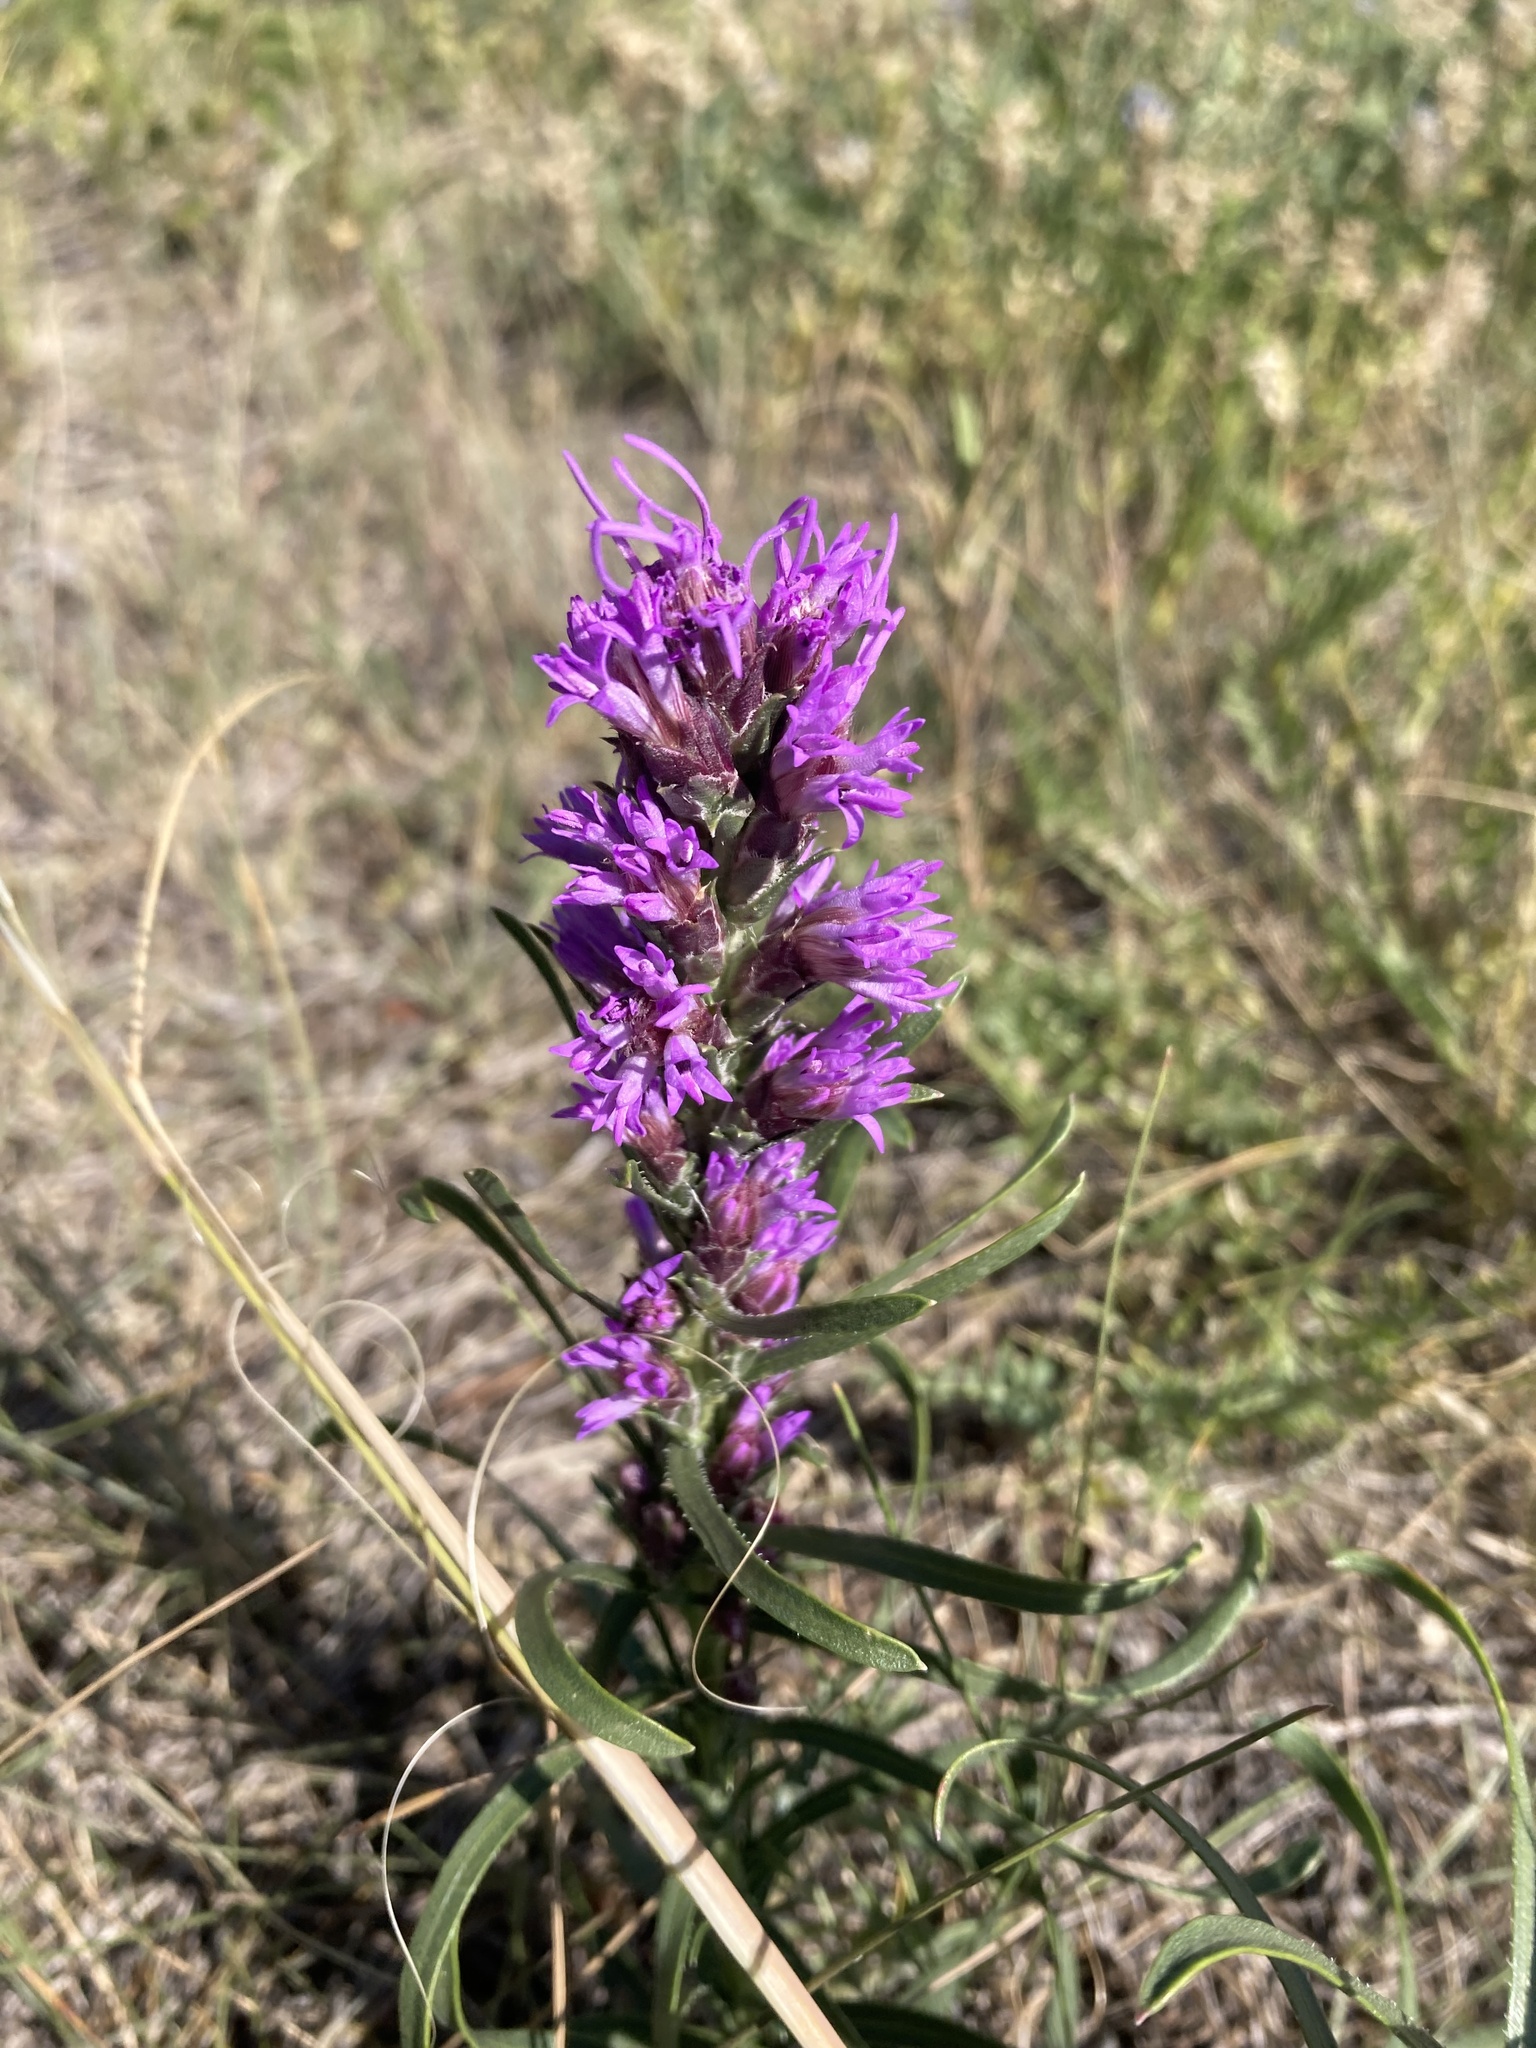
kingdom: Plantae
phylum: Tracheophyta
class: Magnoliopsida
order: Asterales
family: Asteraceae
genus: Liatris
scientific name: Liatris punctata
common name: Dotted gayfeather
